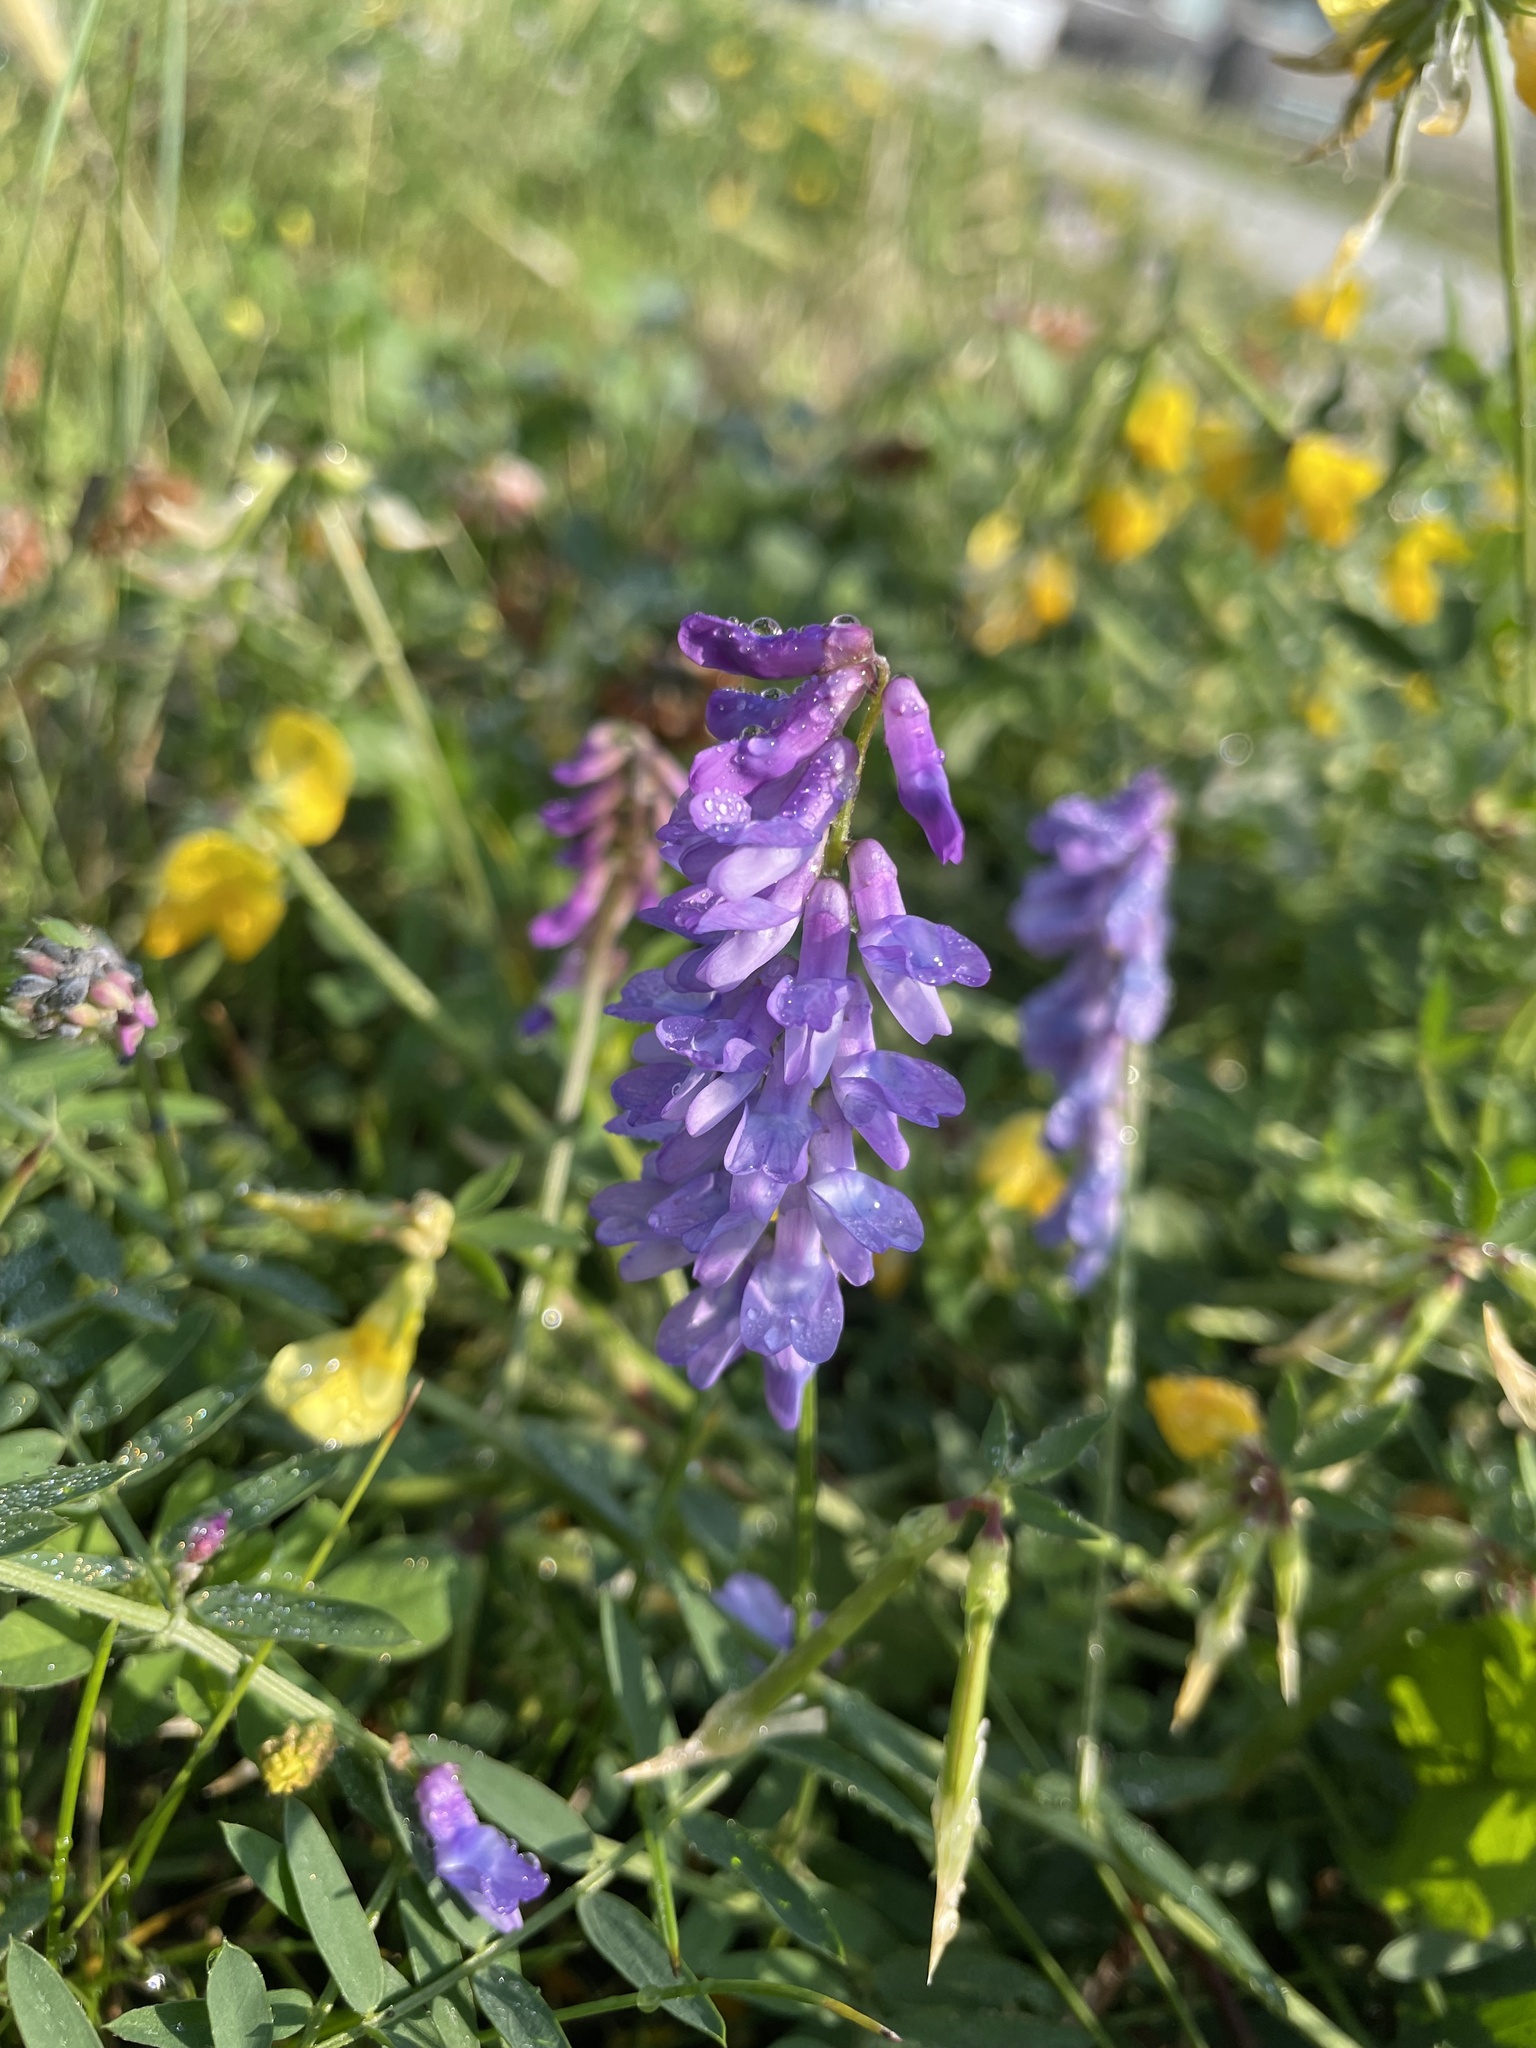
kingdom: Plantae
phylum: Tracheophyta
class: Magnoliopsida
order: Fabales
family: Fabaceae
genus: Vicia
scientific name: Vicia cracca
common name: Bird vetch
